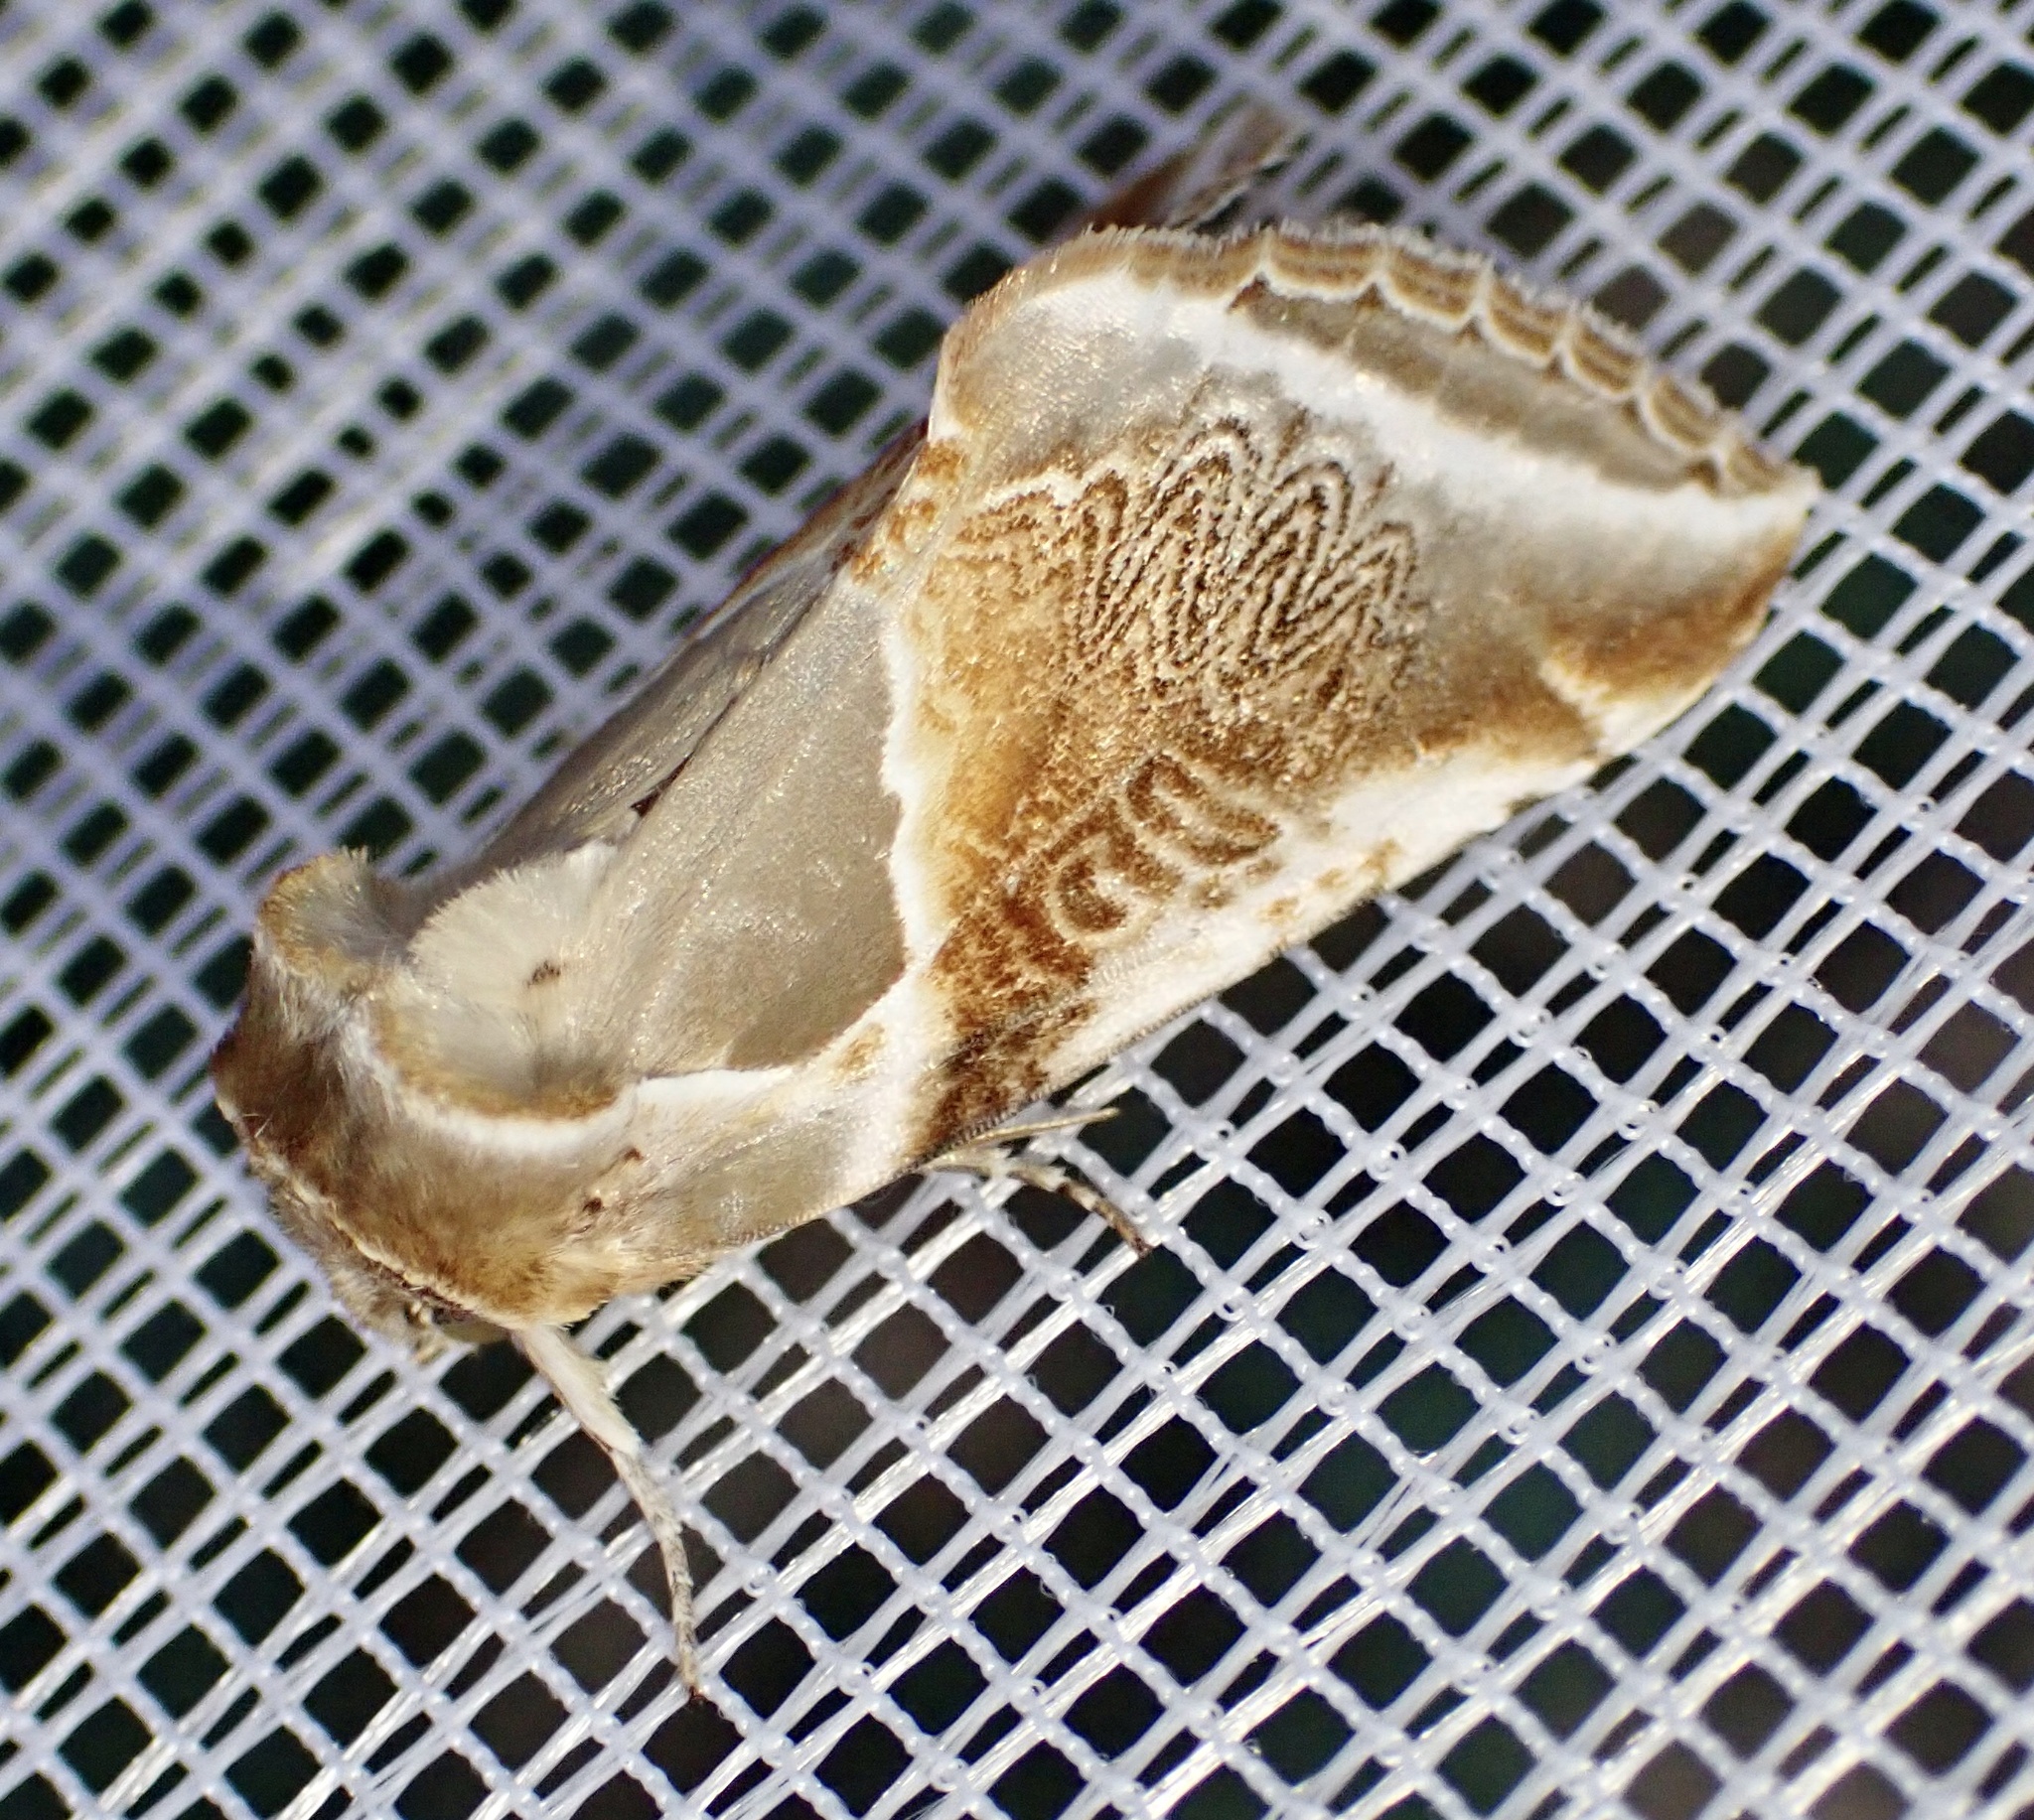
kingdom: Animalia
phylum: Arthropoda
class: Insecta
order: Lepidoptera
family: Drepanidae
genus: Habrosyne
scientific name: Habrosyne pyritoides
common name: Buff arches
